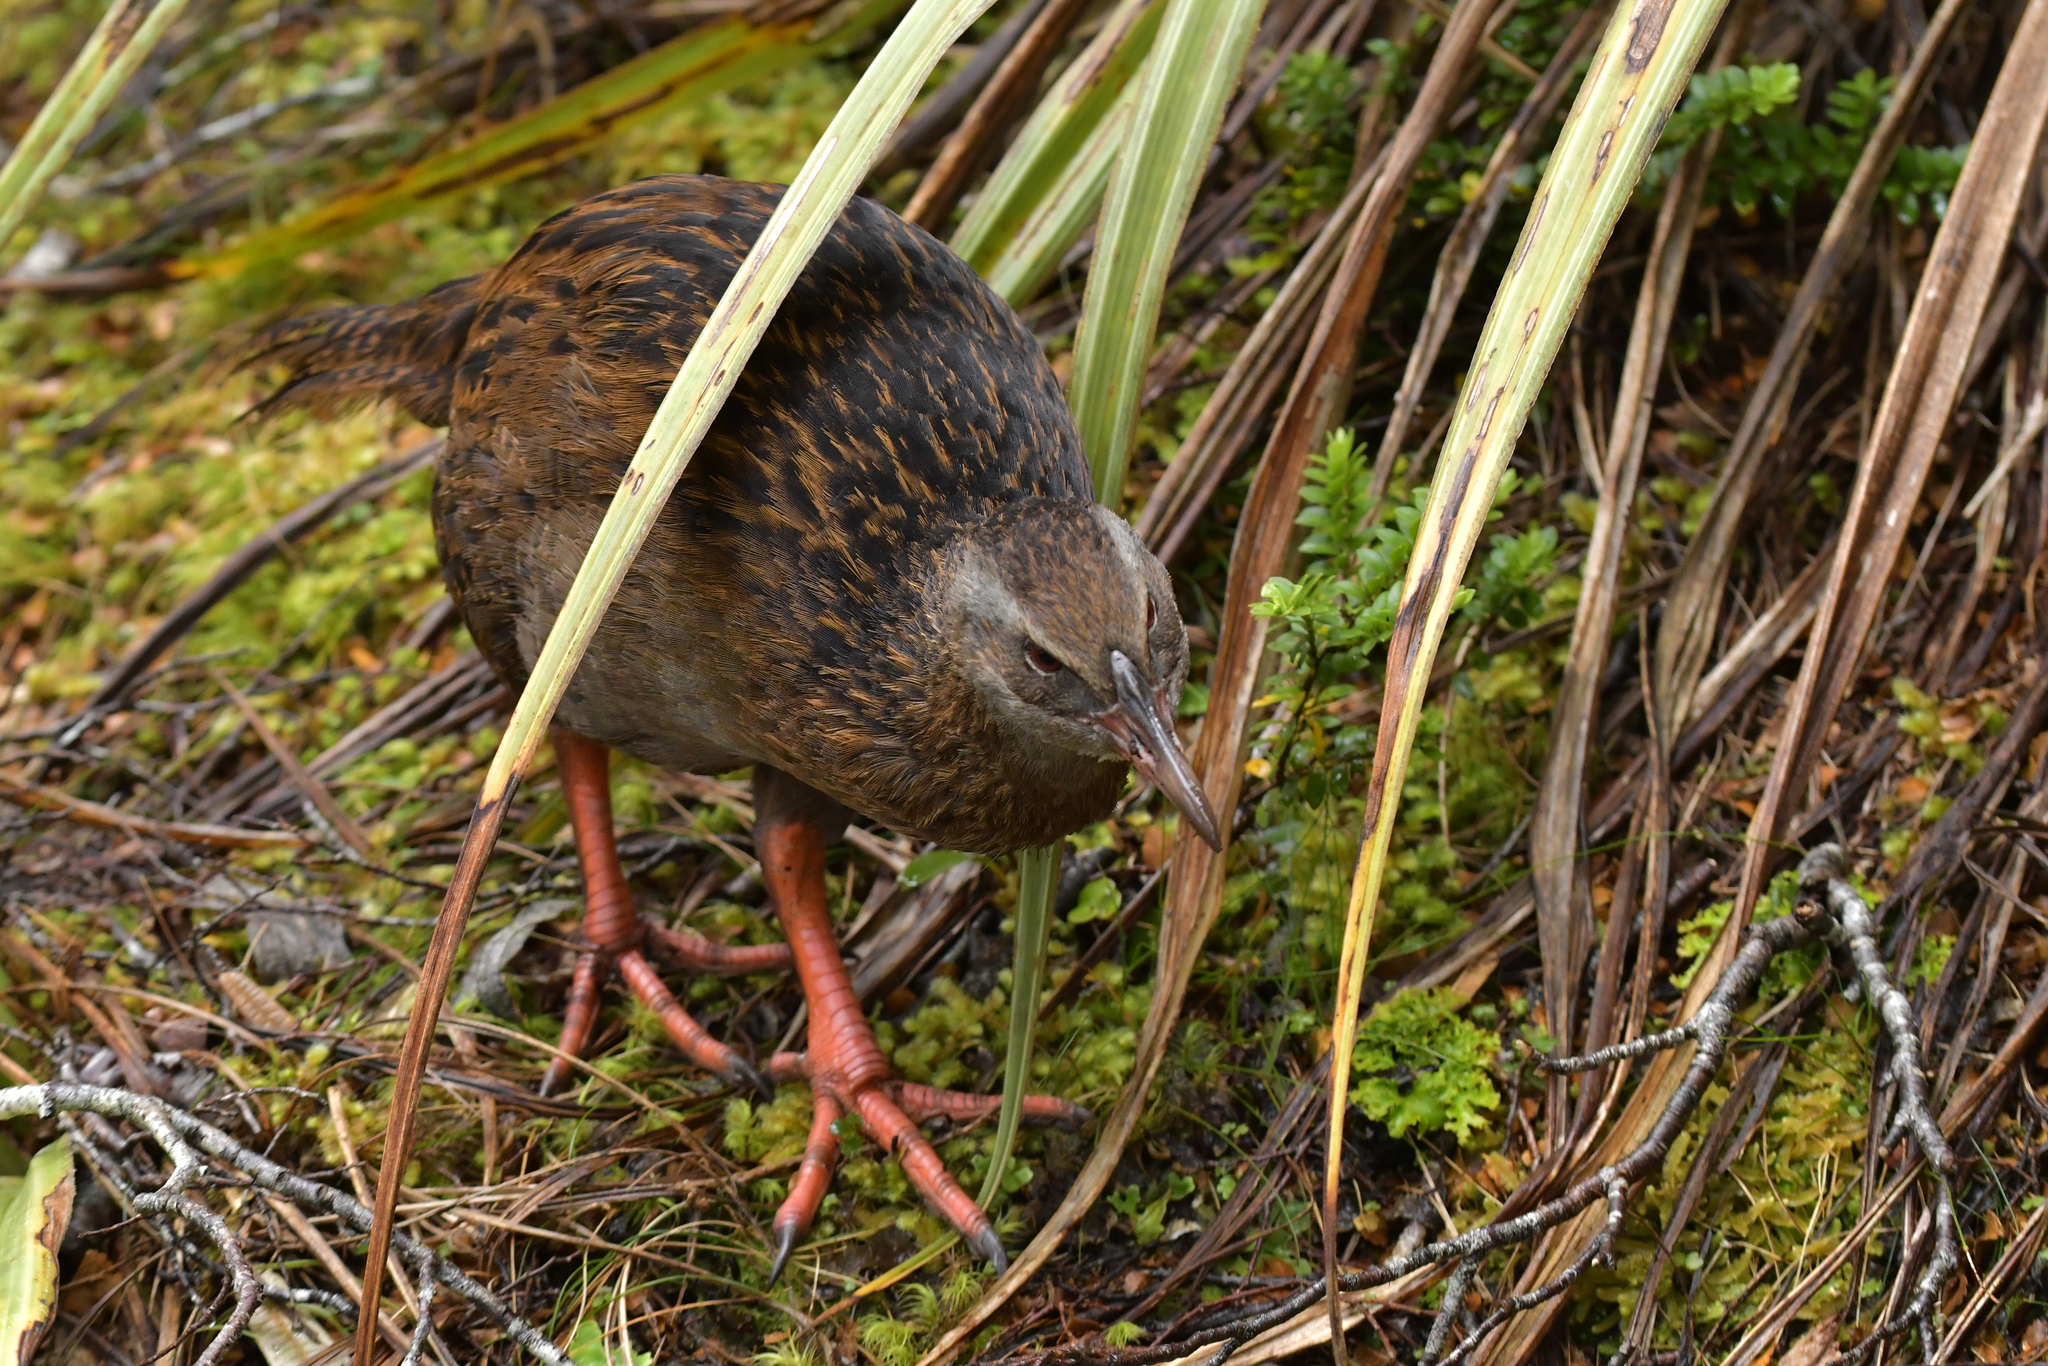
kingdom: Animalia
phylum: Chordata
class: Aves
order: Gruiformes
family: Rallidae
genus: Gallirallus
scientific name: Gallirallus australis
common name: Weka
